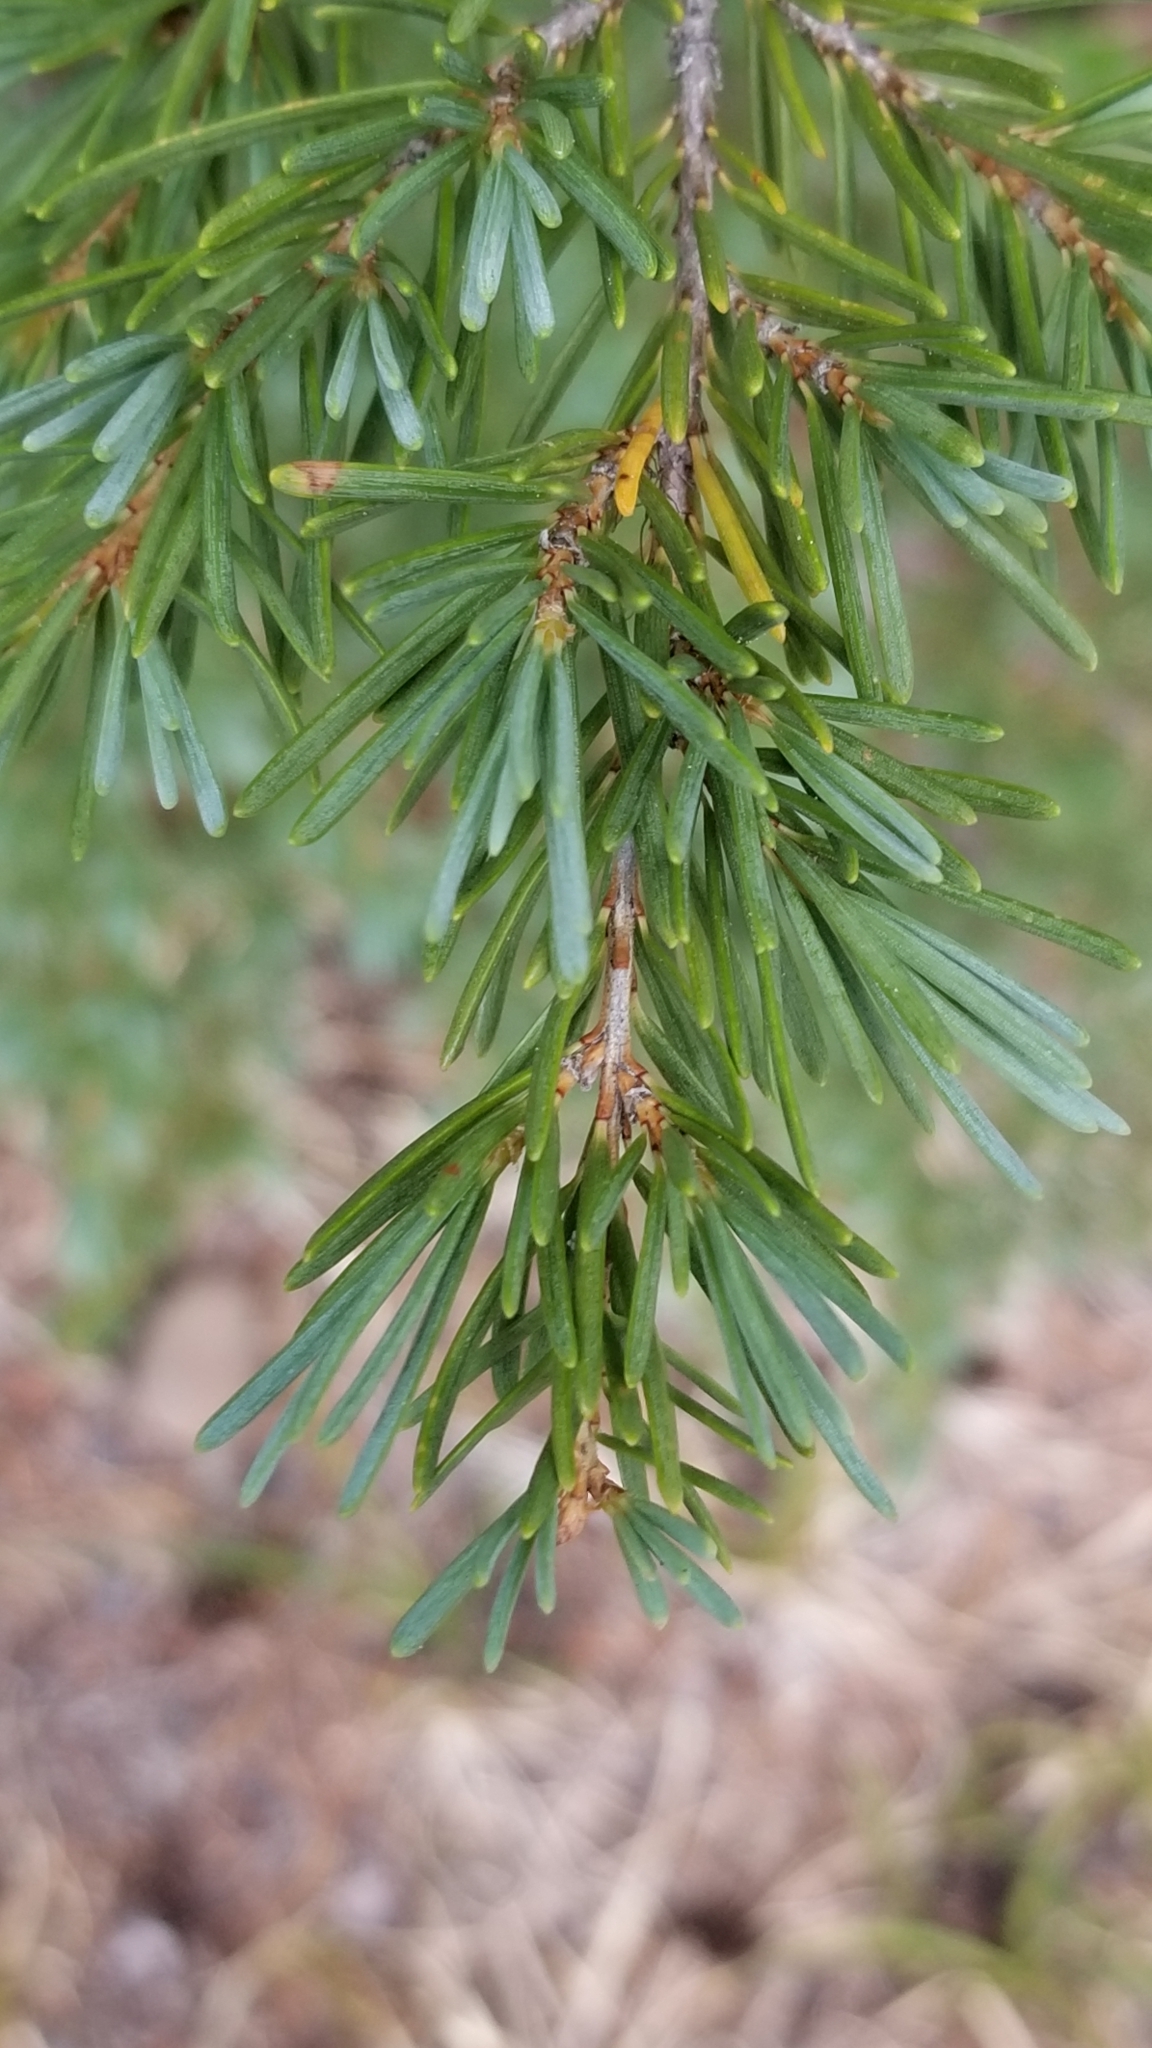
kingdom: Plantae
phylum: Tracheophyta
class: Pinopsida
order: Pinales
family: Pinaceae
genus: Tsuga
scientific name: Tsuga mertensiana
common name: Mountain hemlock
